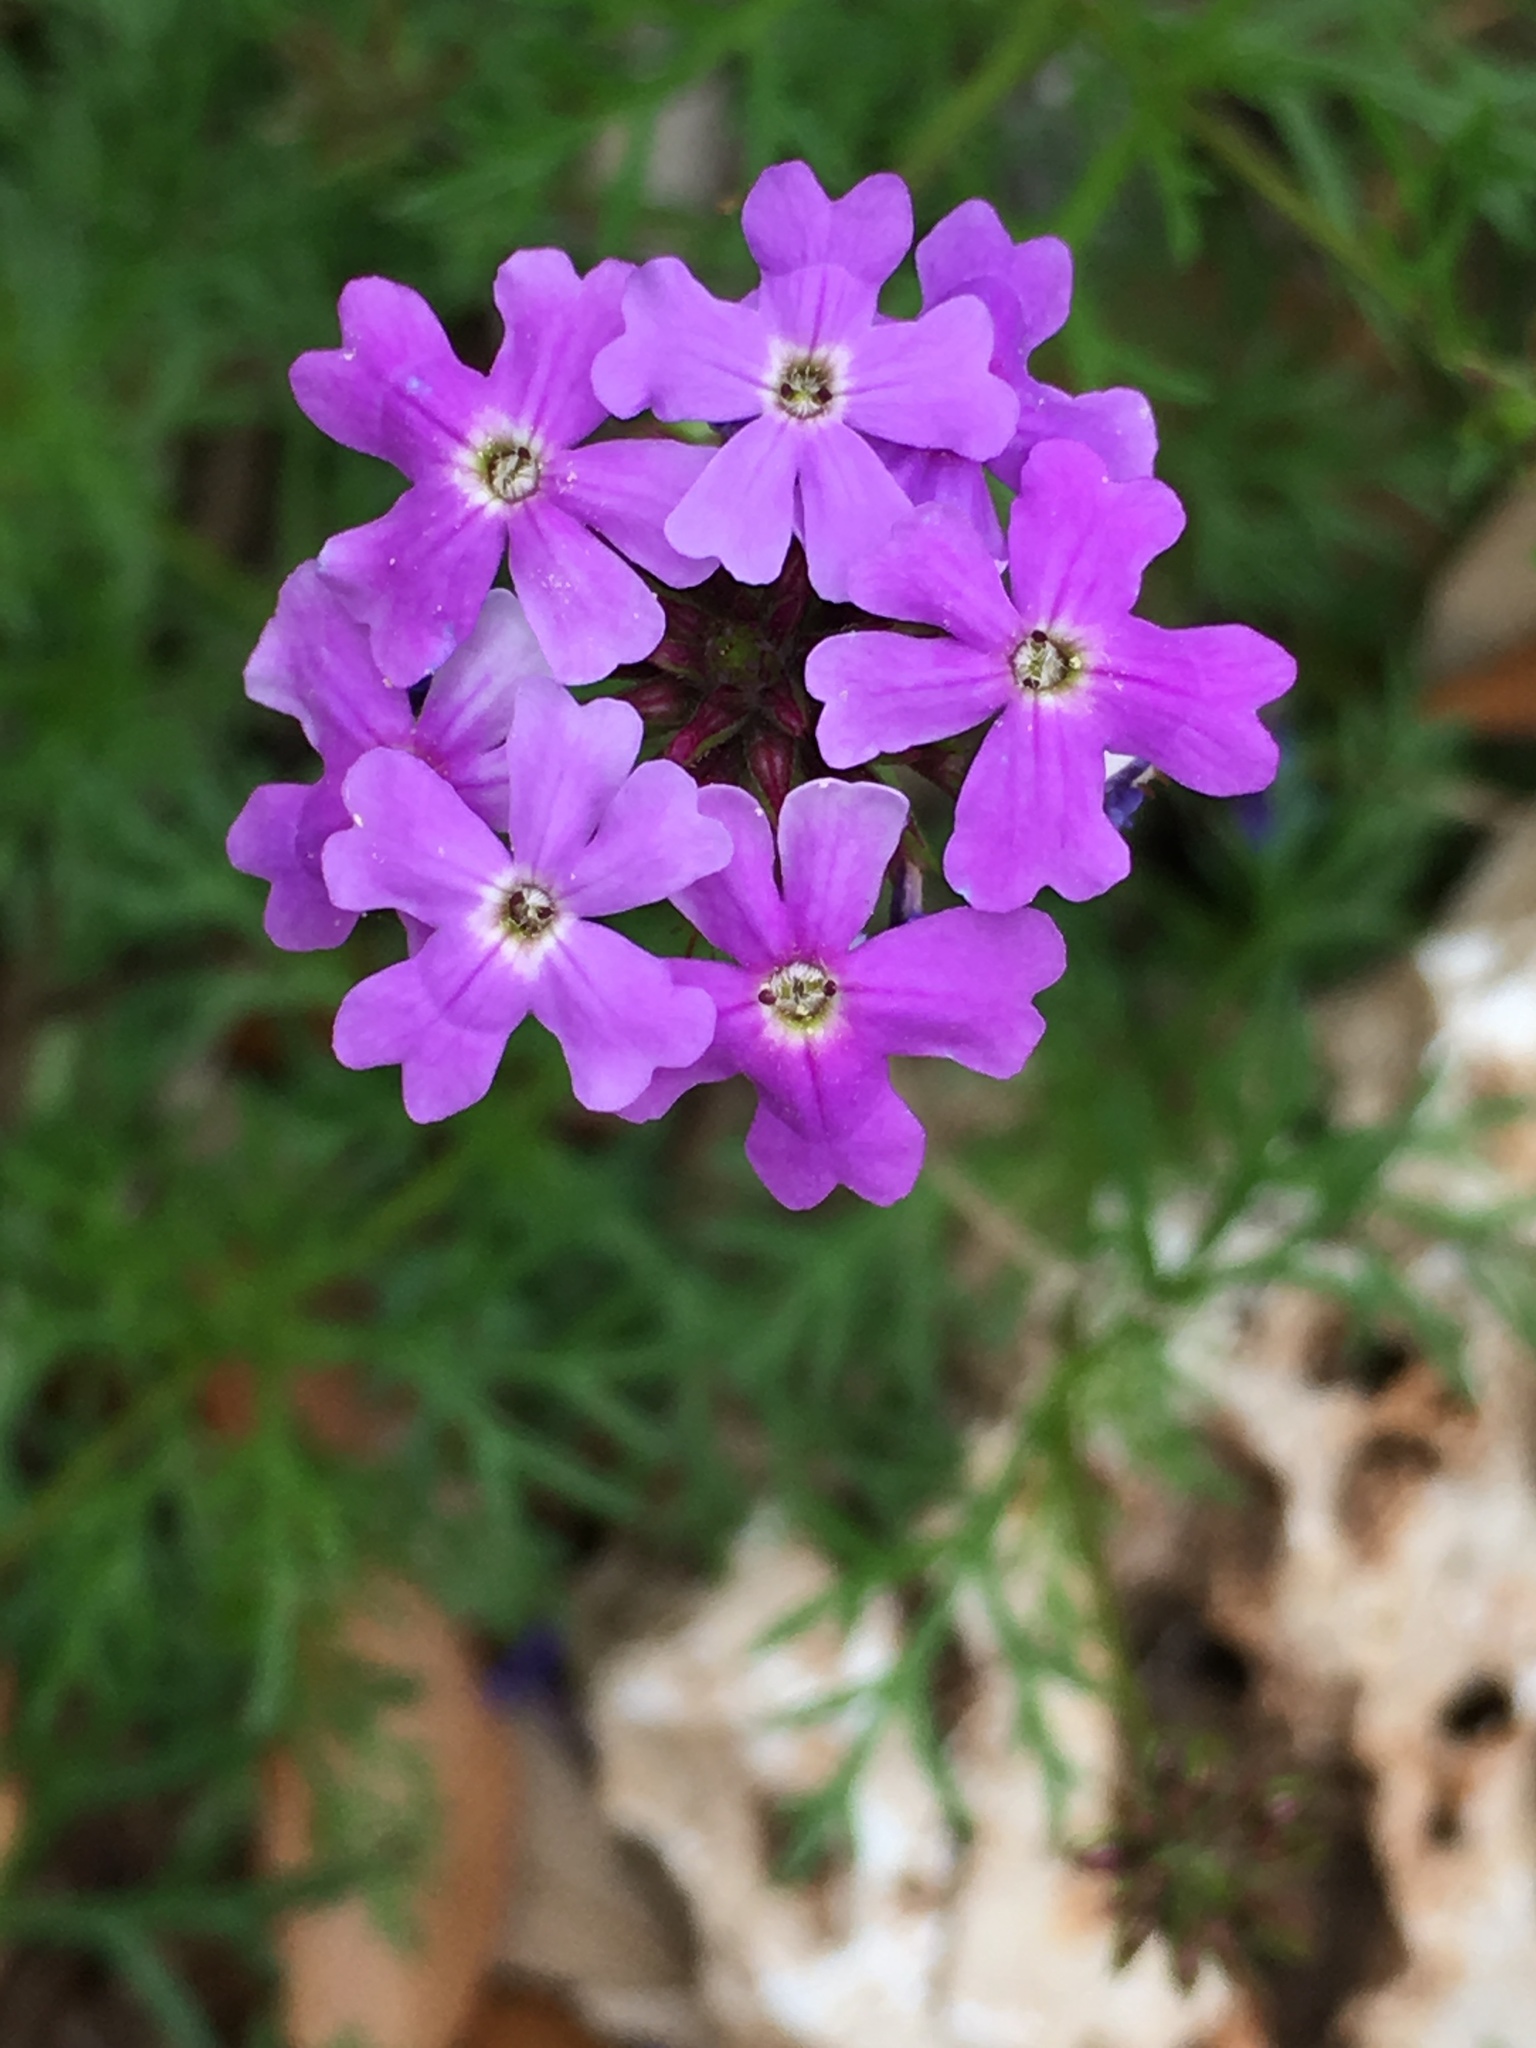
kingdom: Plantae
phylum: Tracheophyta
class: Magnoliopsida
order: Lamiales
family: Verbenaceae
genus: Verbena
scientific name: Verbena bipinnatifida
